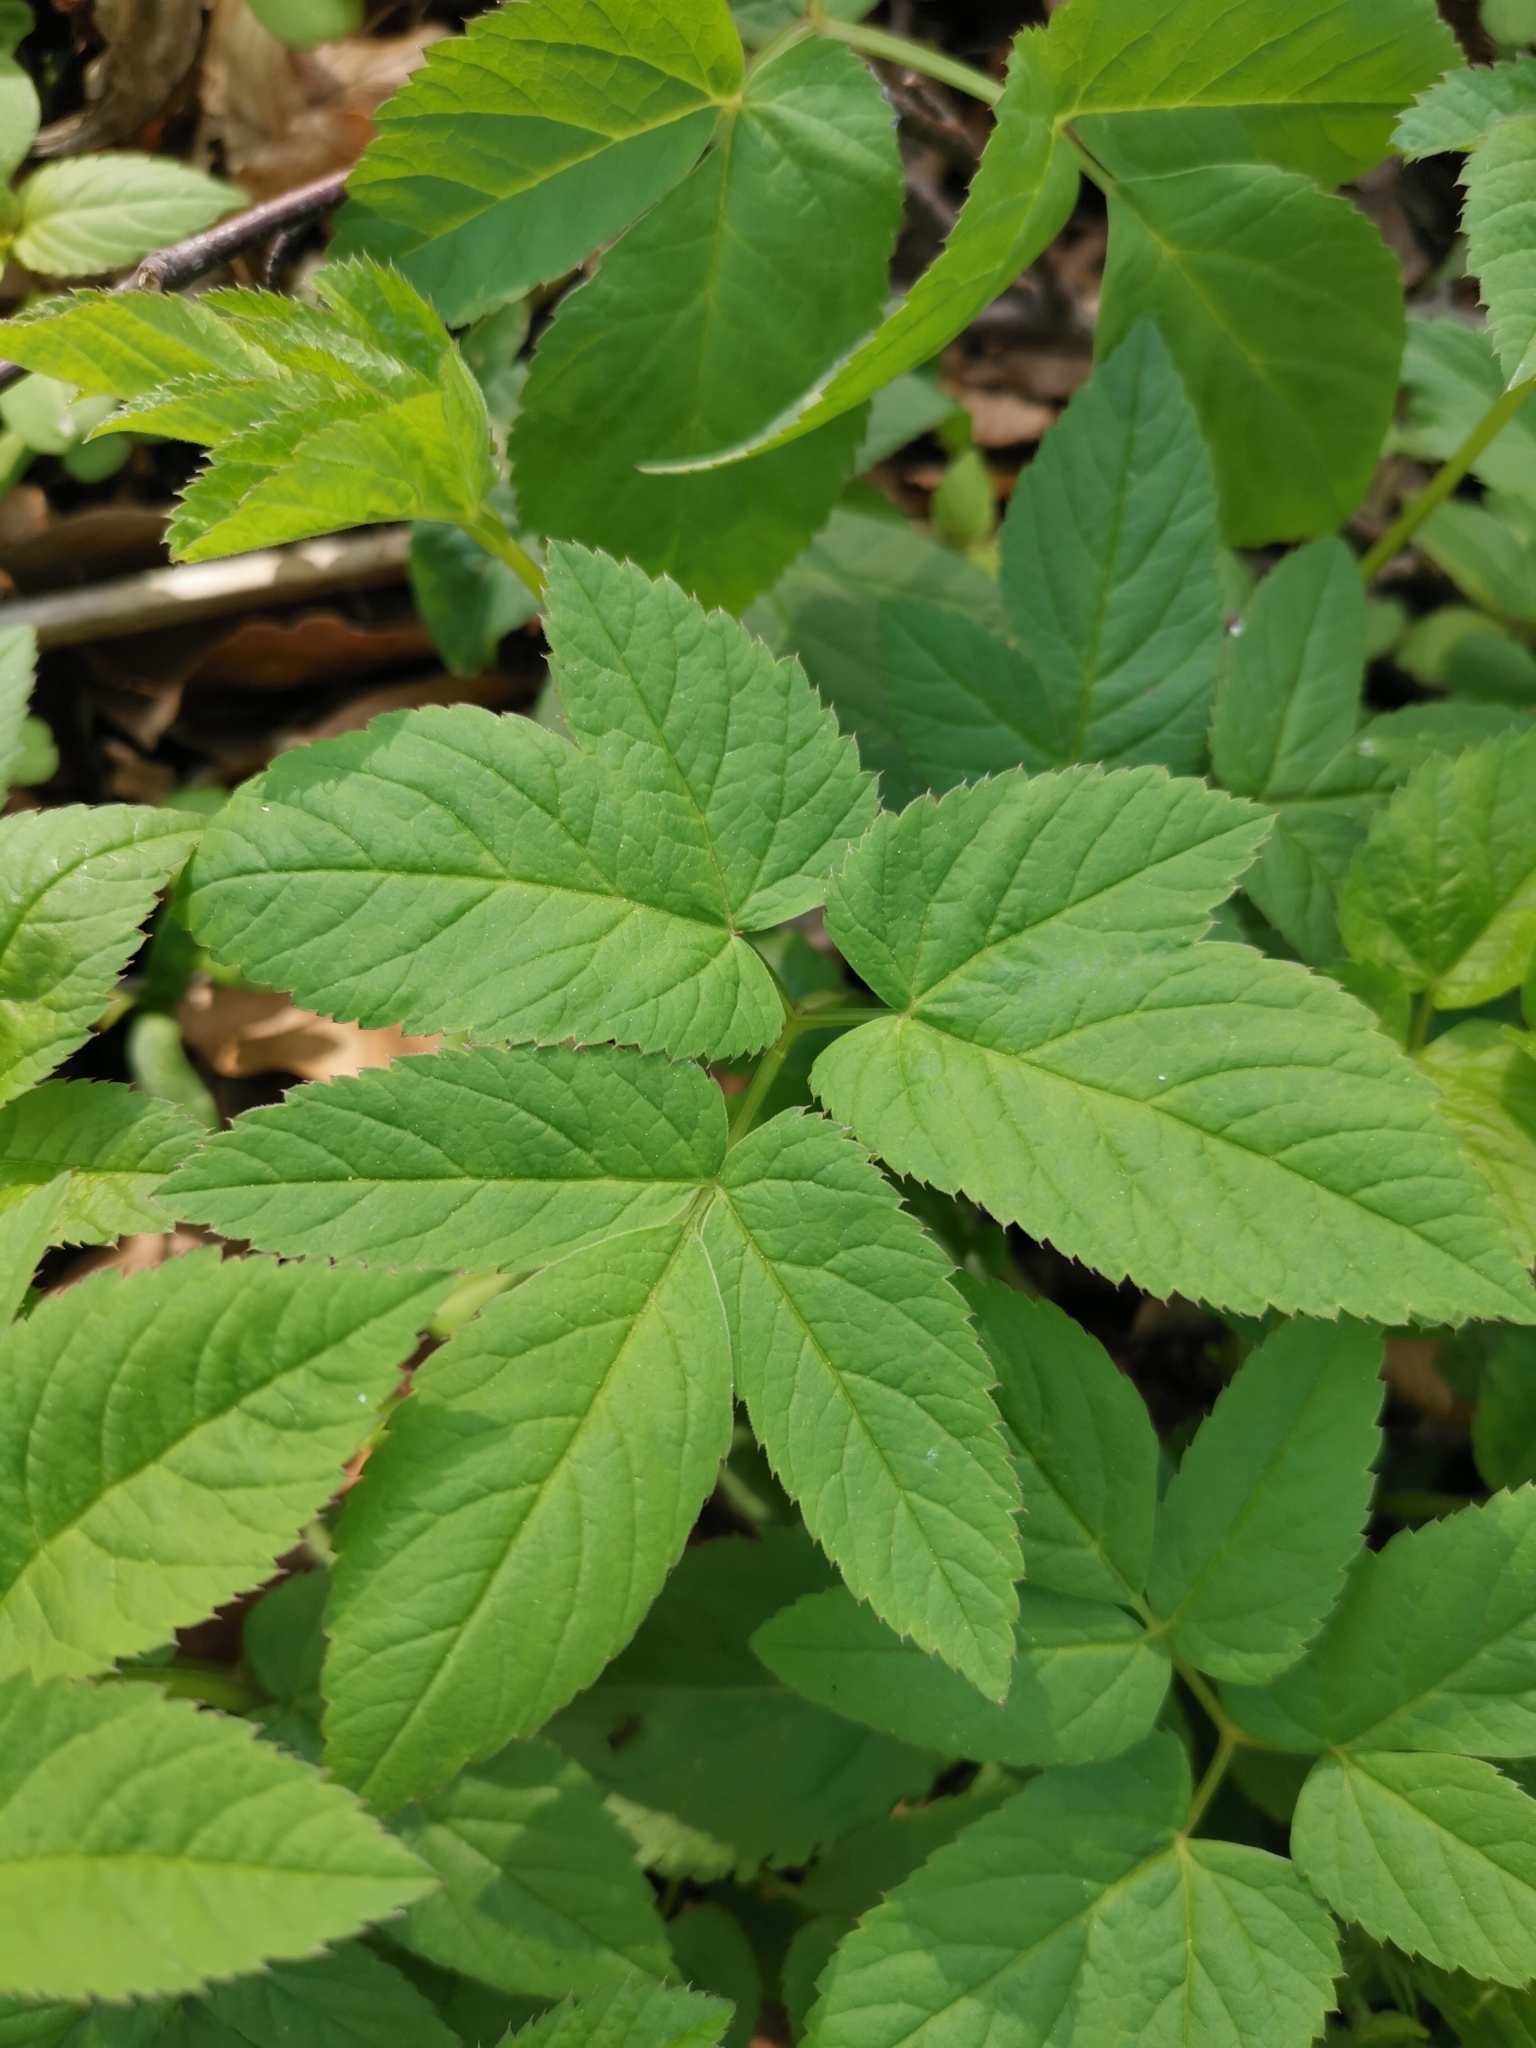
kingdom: Plantae
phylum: Tracheophyta
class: Magnoliopsida
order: Apiales
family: Apiaceae
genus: Aegopodium
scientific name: Aegopodium podagraria
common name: Ground-elder
